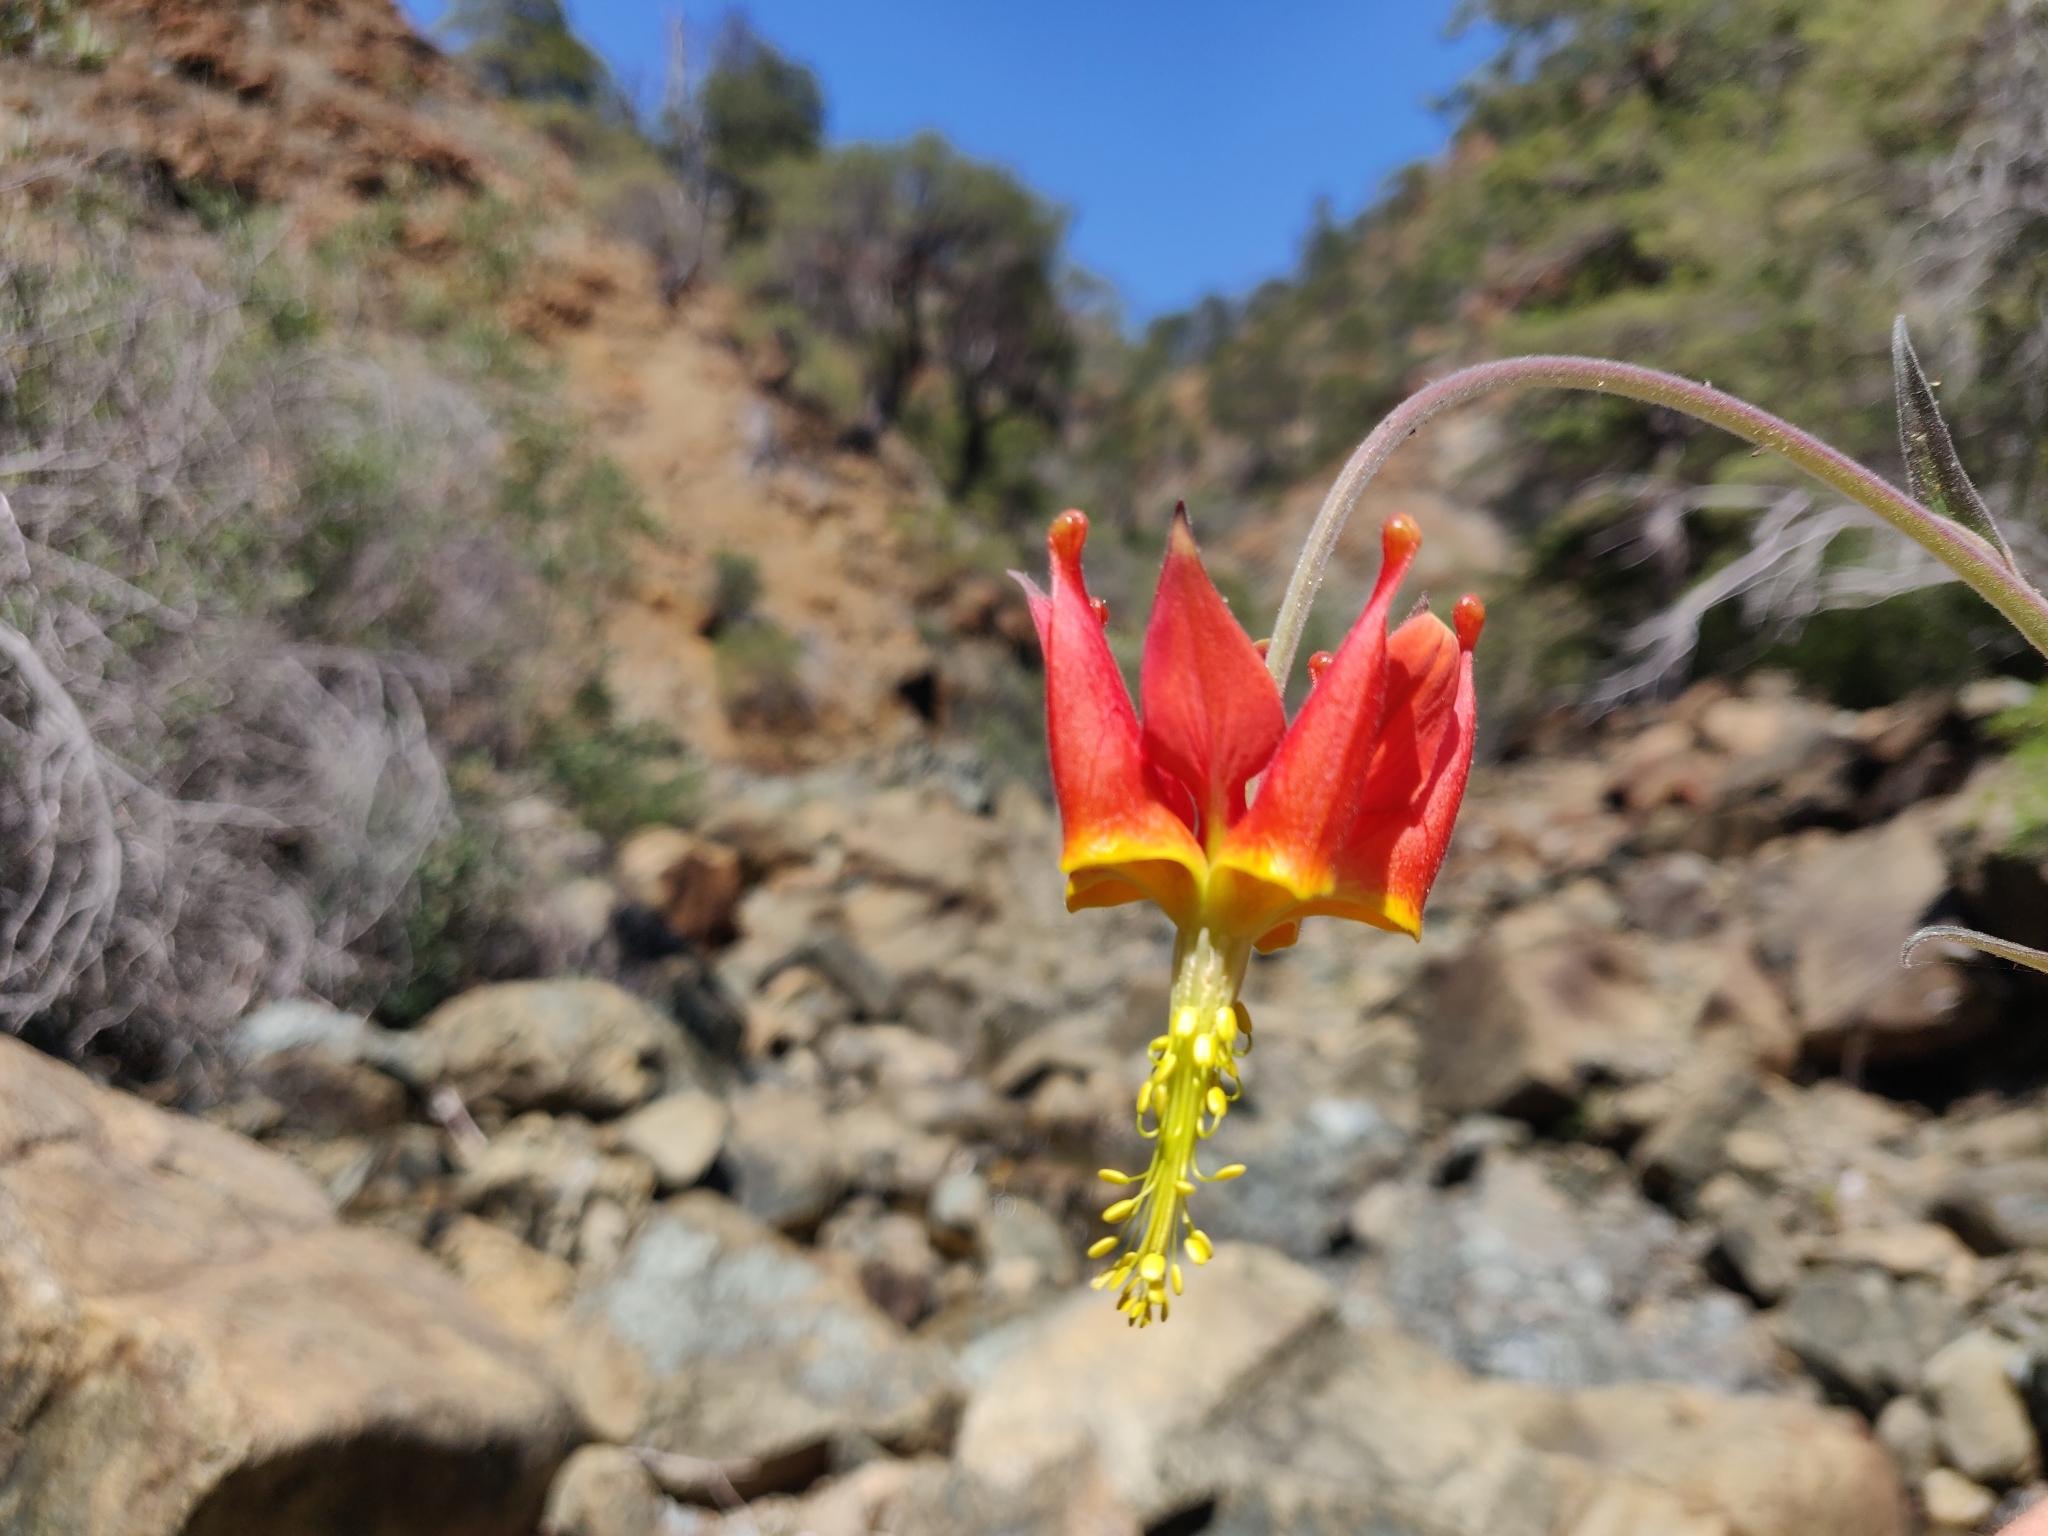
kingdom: Plantae
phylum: Tracheophyta
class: Magnoliopsida
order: Ranunculales
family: Ranunculaceae
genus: Aquilegia
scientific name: Aquilegia eximia
